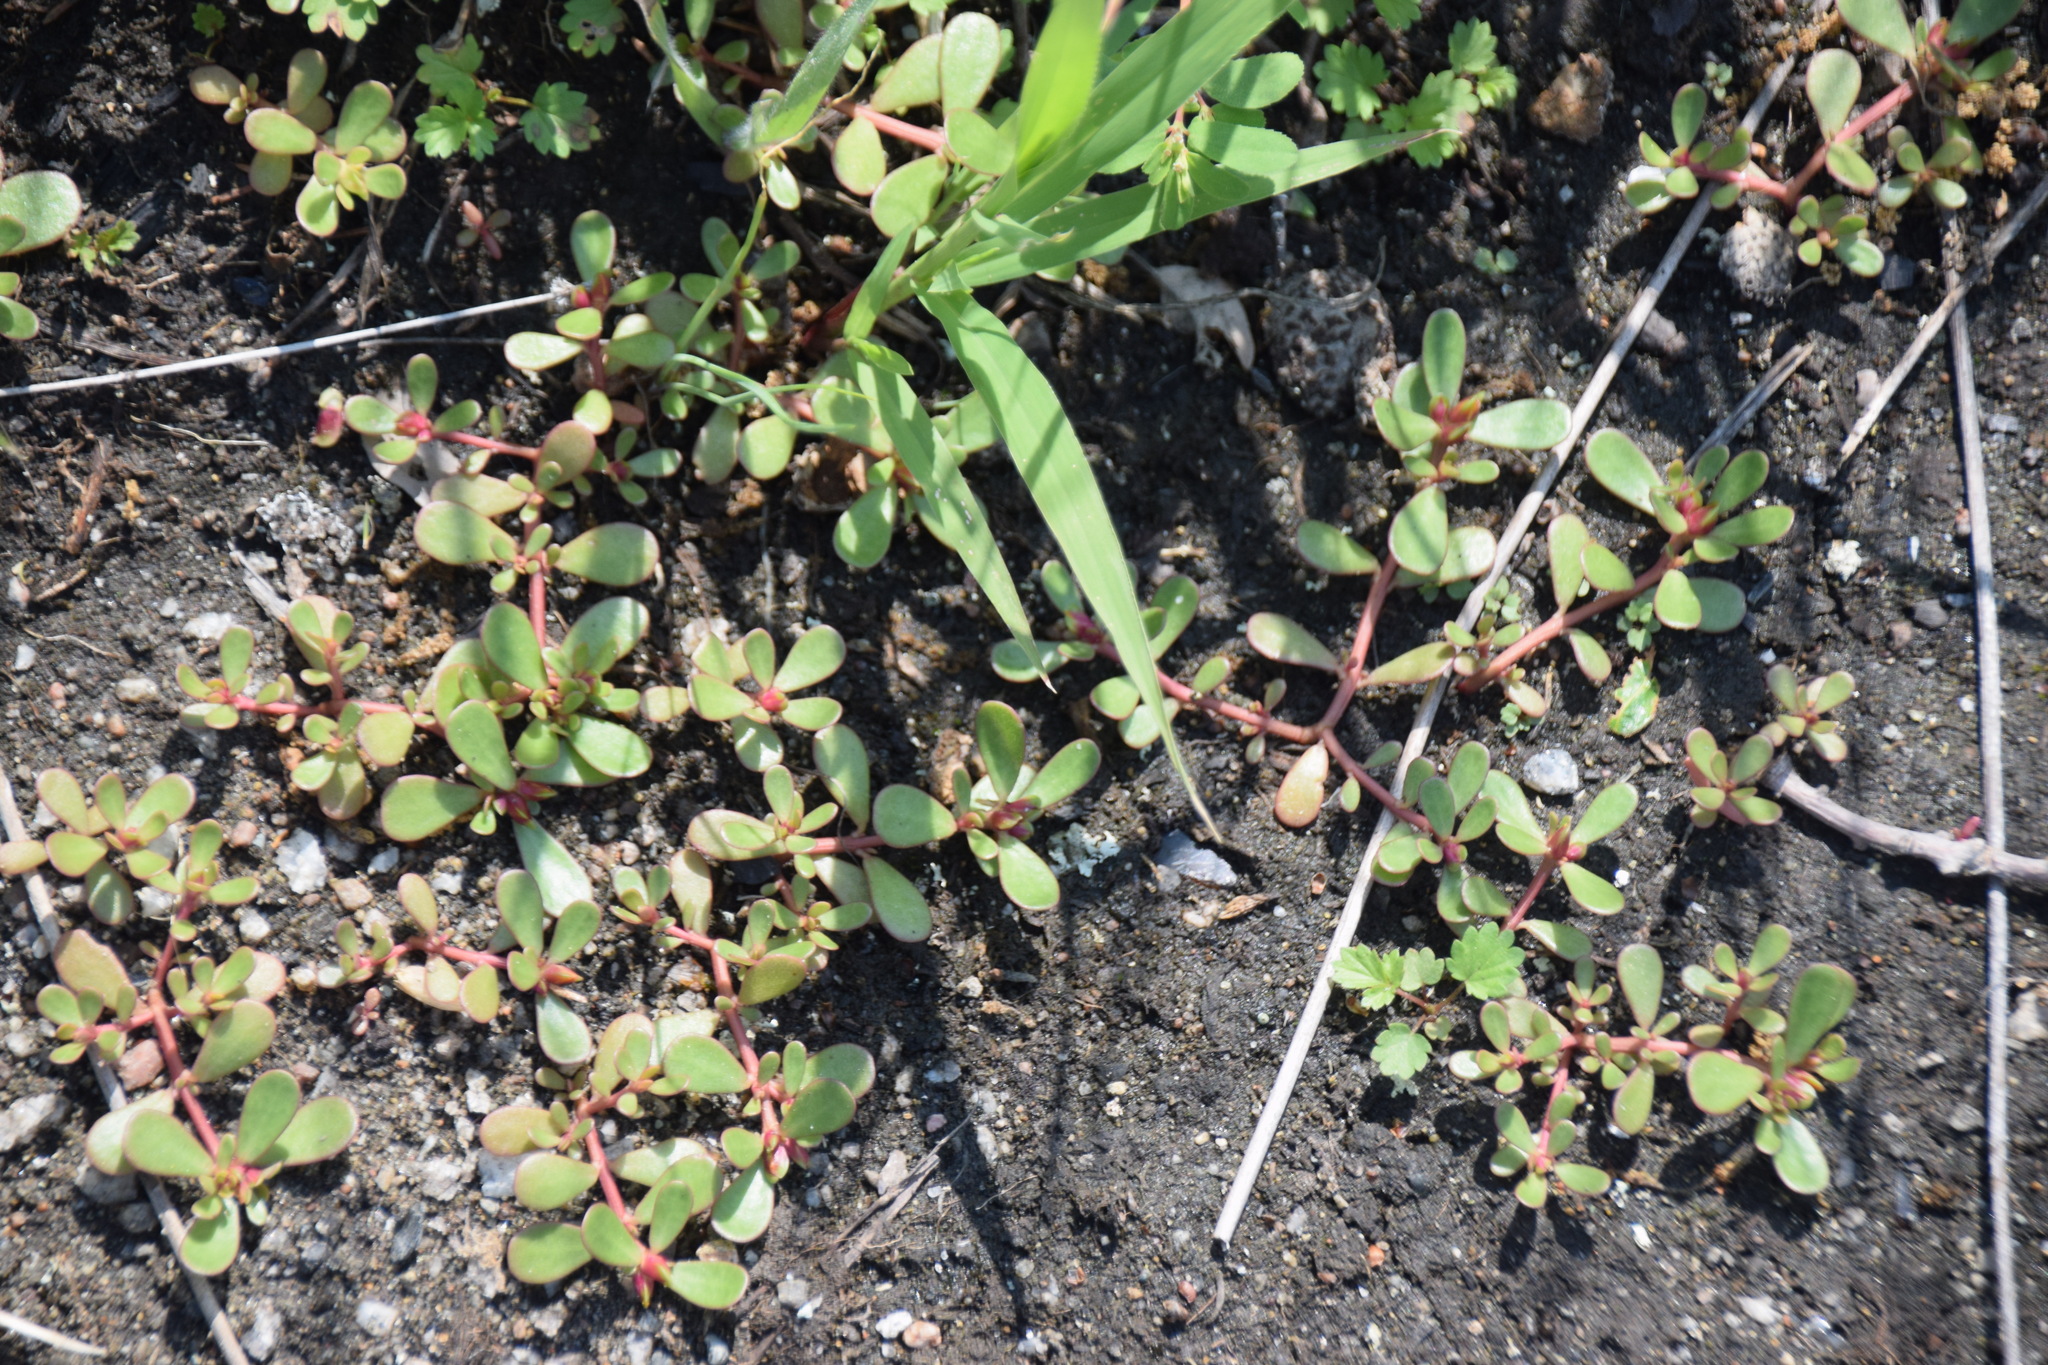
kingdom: Plantae
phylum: Tracheophyta
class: Magnoliopsida
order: Caryophyllales
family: Portulacaceae
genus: Portulaca
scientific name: Portulaca oleracea
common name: Common purslane
